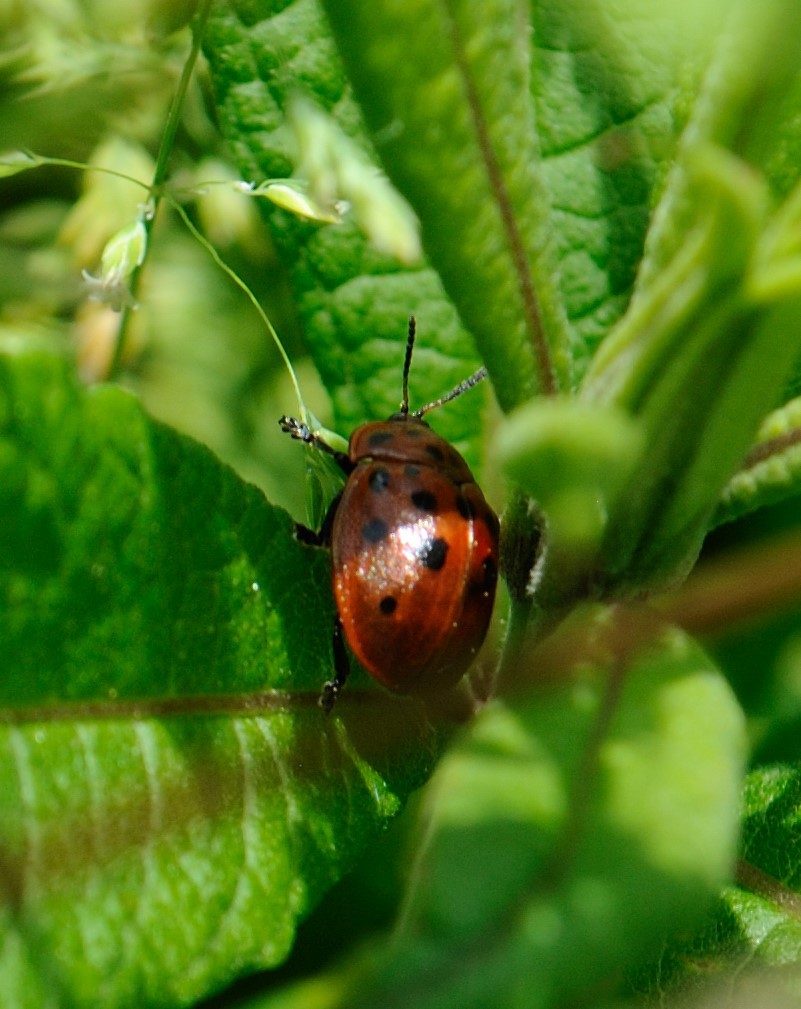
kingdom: Animalia
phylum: Arthropoda
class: Insecta
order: Coleoptera
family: Chrysomelidae
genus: Chelymorpha
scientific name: Chelymorpha cassidea
